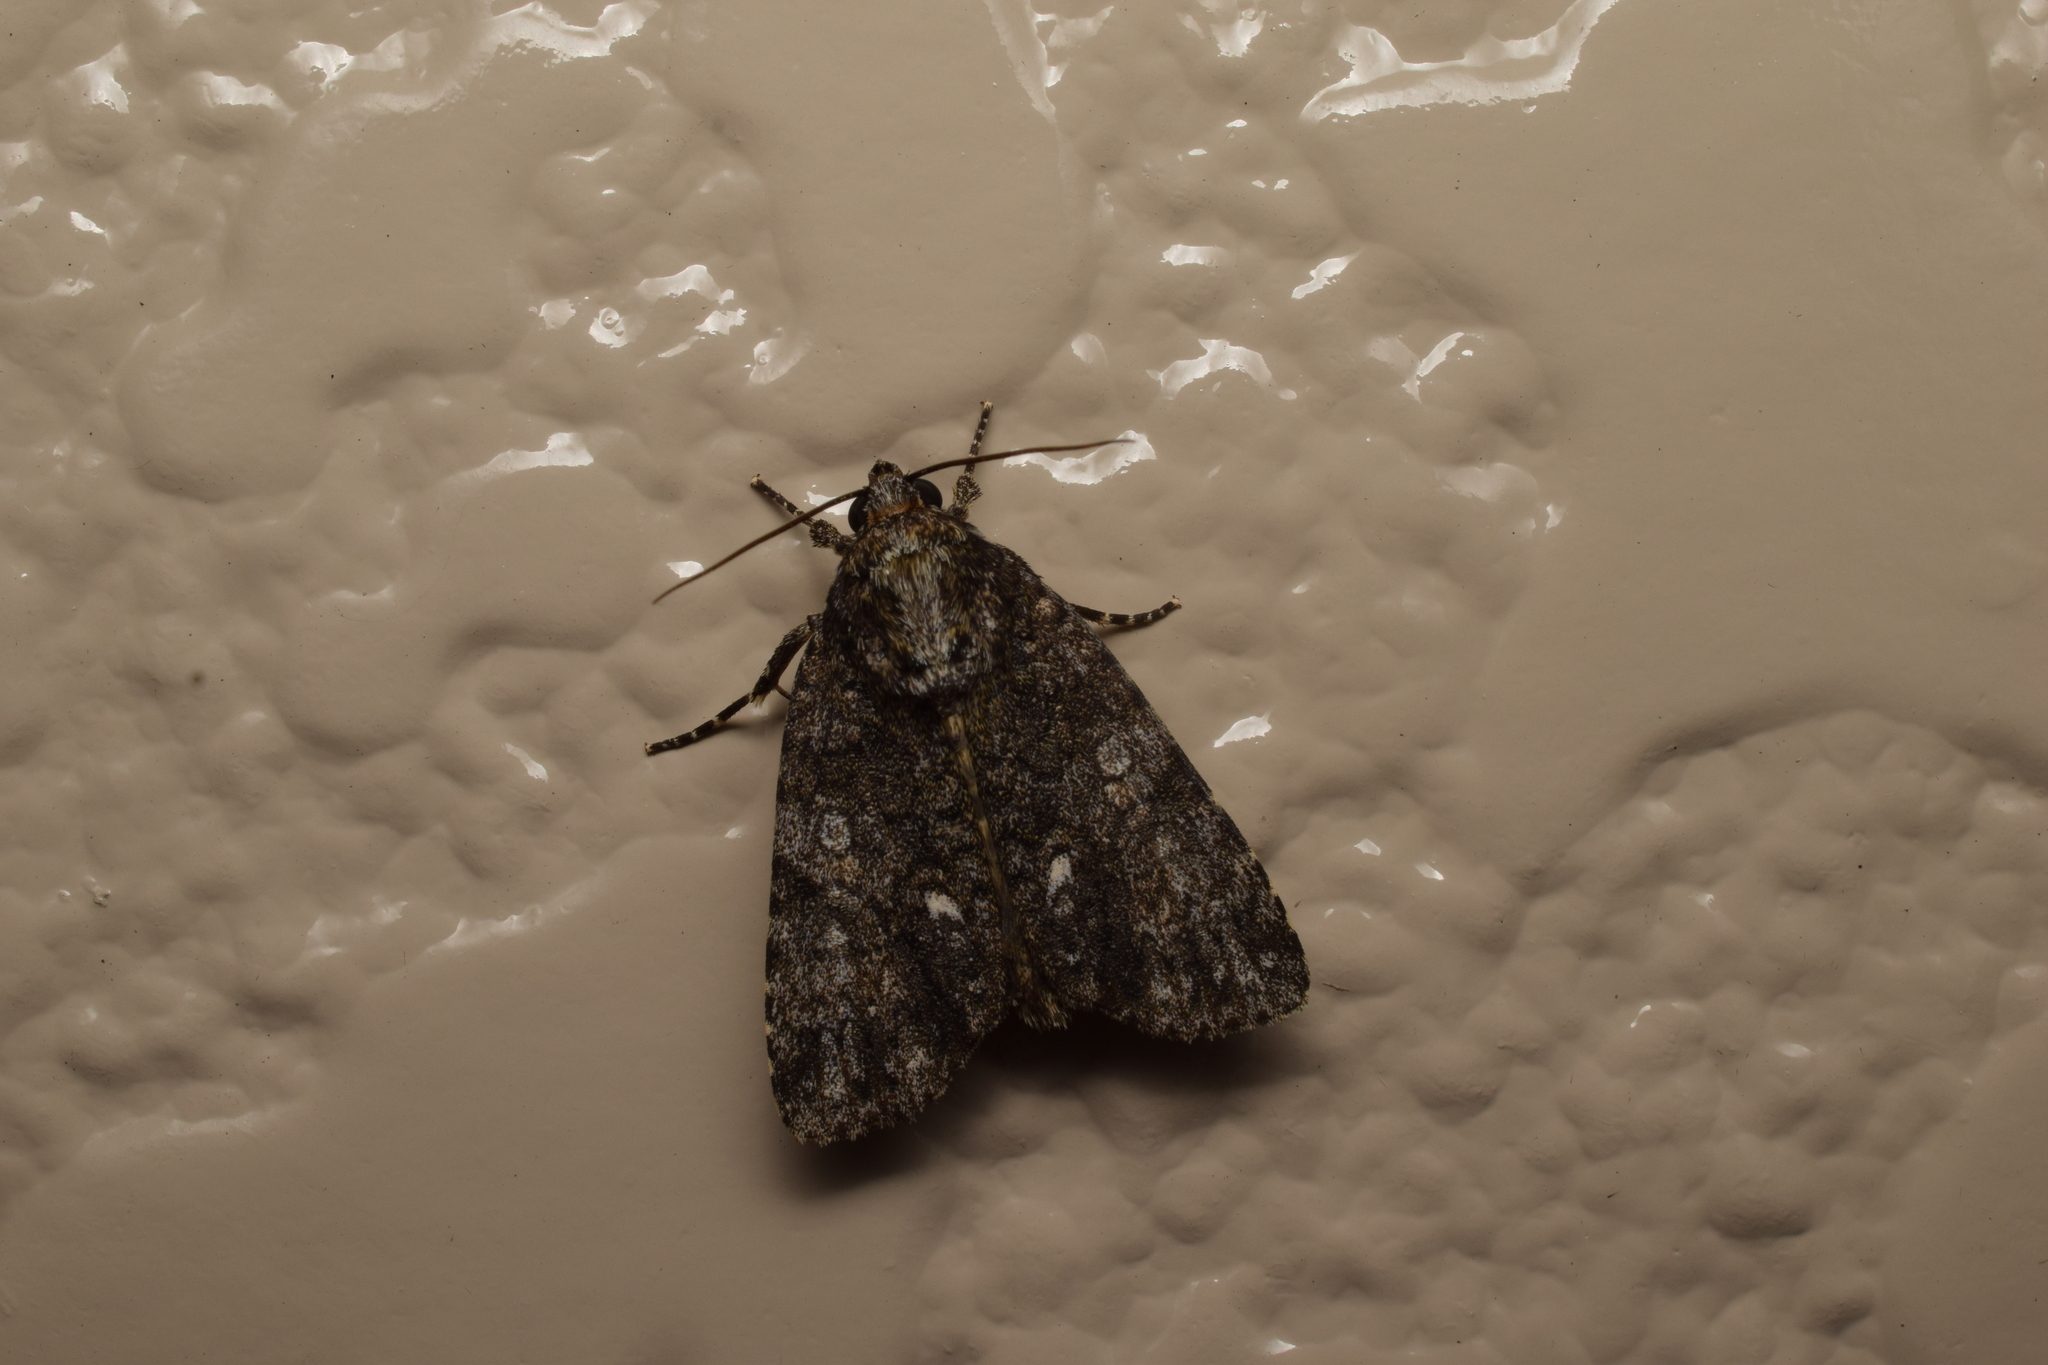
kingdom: Animalia
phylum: Arthropoda
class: Insecta
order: Lepidoptera
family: Noctuidae
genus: Acronicta
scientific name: Acronicta rumicis
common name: Knot grass
